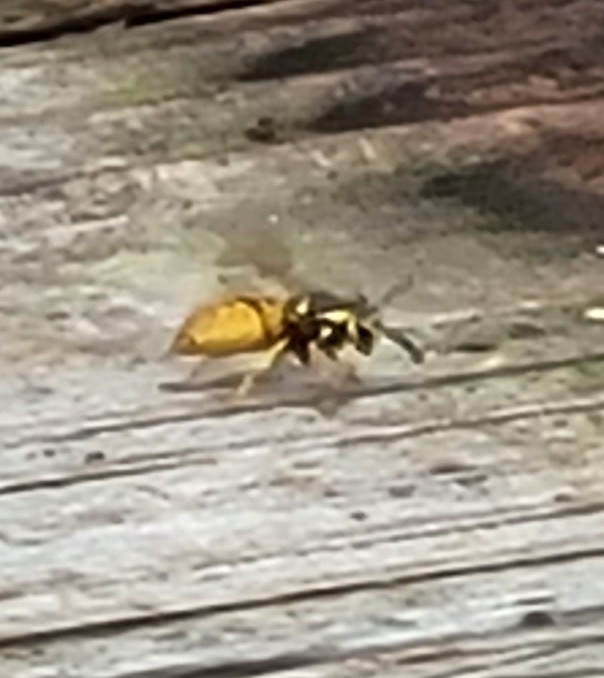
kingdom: Animalia
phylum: Arthropoda
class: Insecta
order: Hymenoptera
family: Vespidae
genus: Vespula
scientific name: Vespula maculifrons
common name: Eastern yellowjacket
